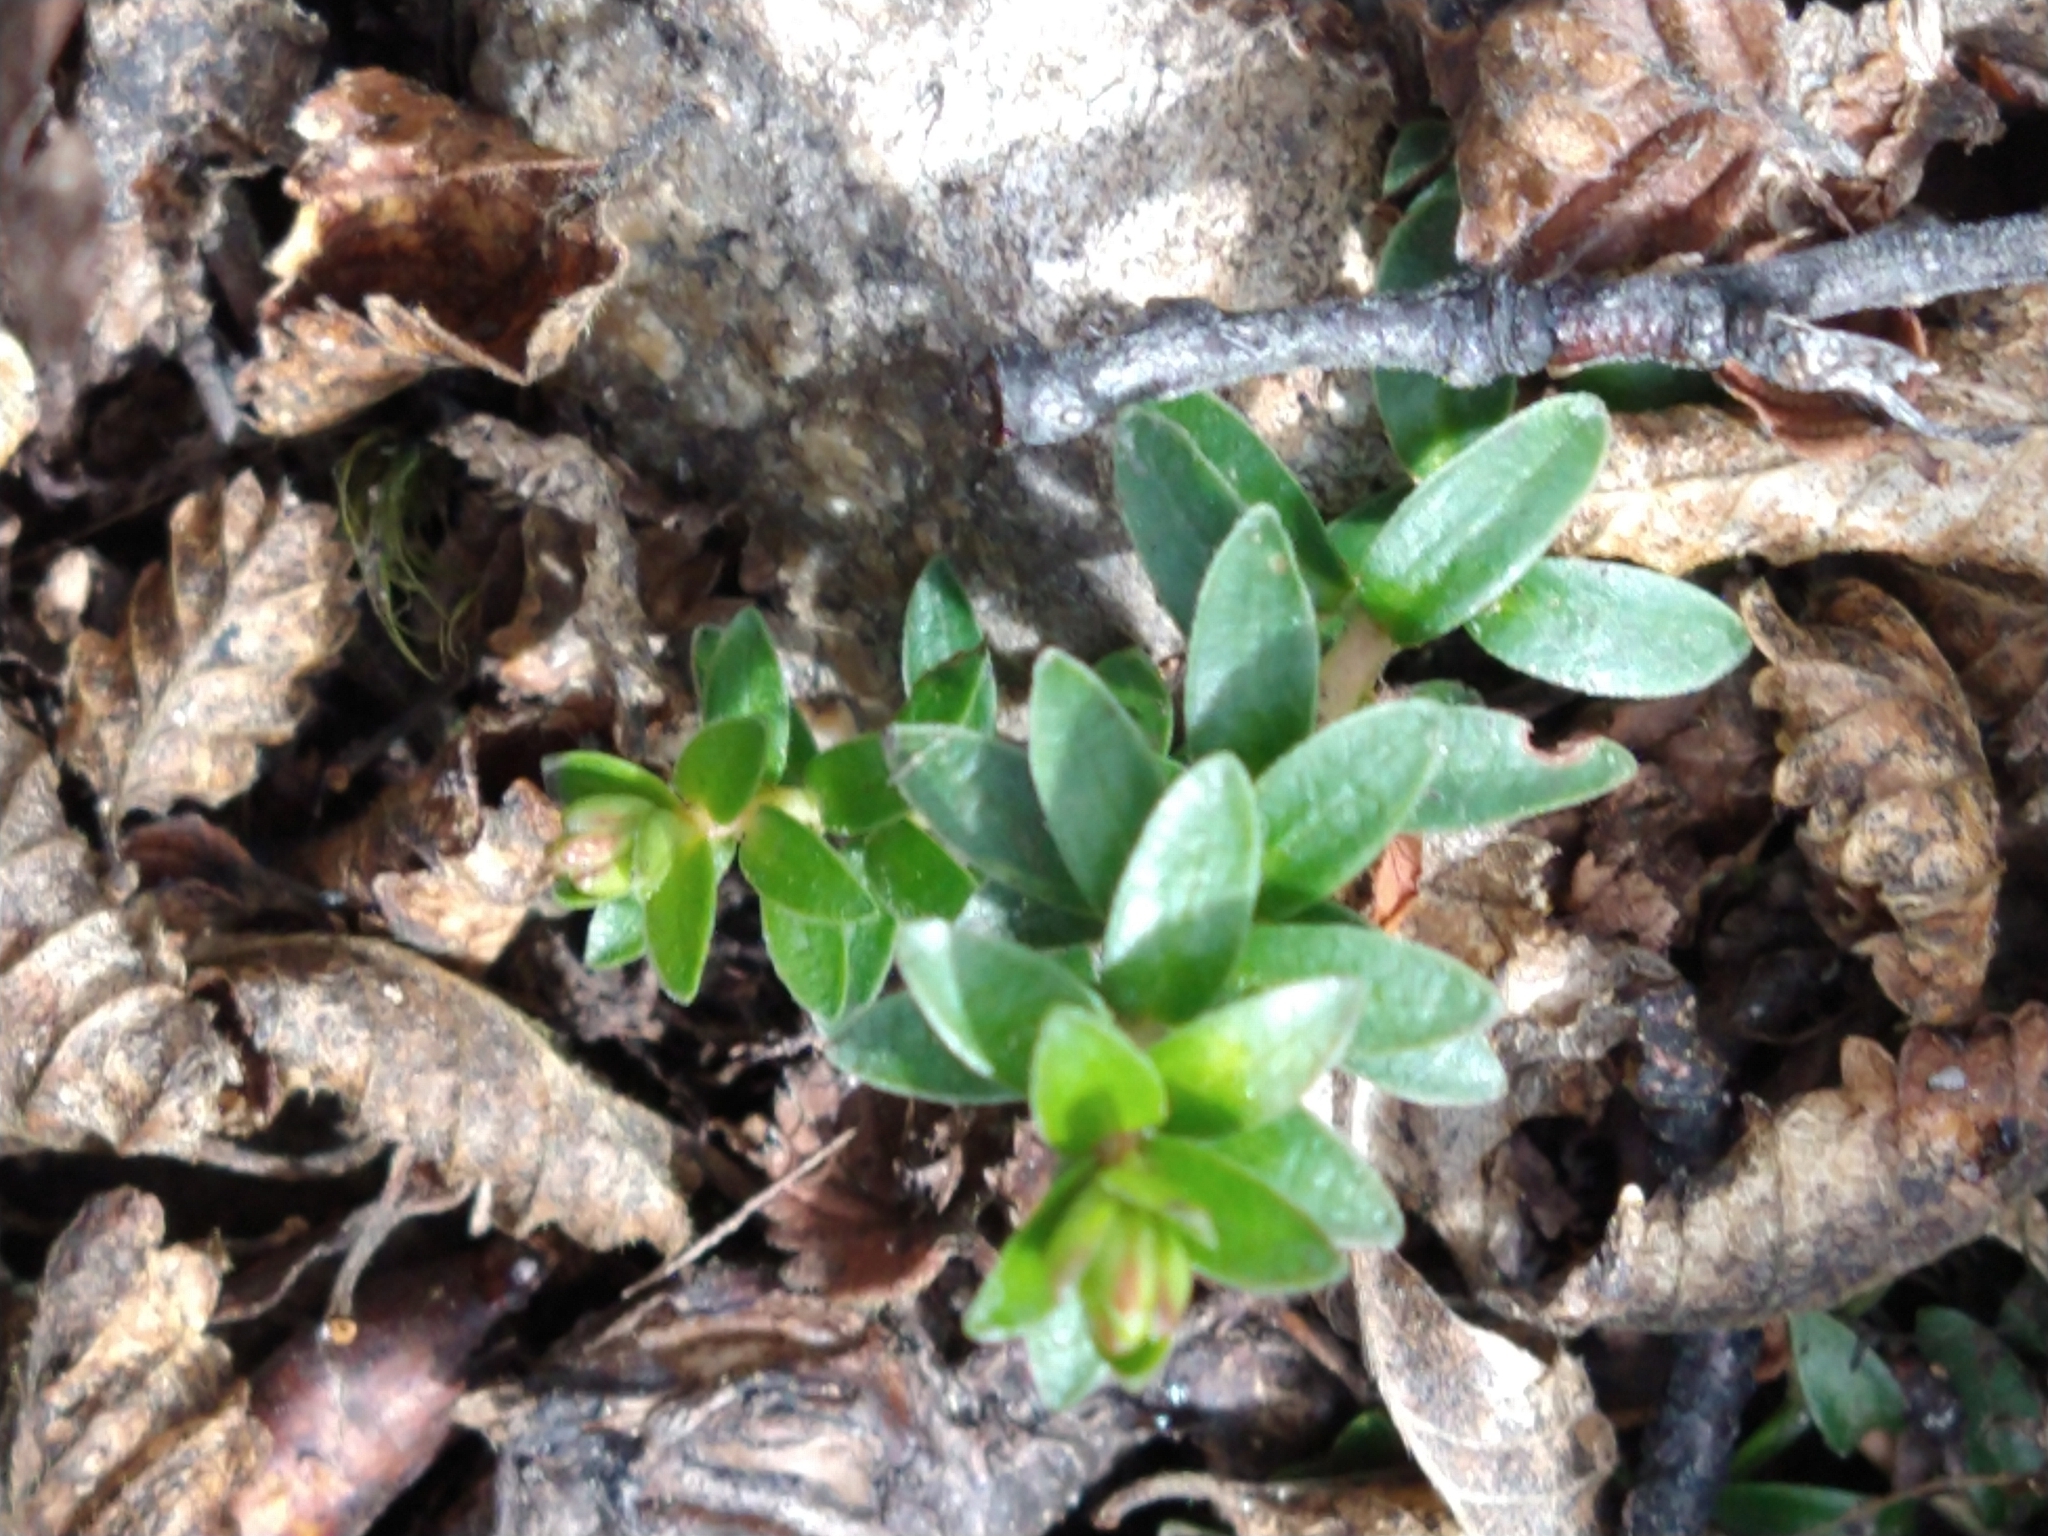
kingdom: Plantae
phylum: Tracheophyta
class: Magnoliopsida
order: Ericales
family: Ericaceae
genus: Gaultheria
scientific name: Gaultheria pumila
